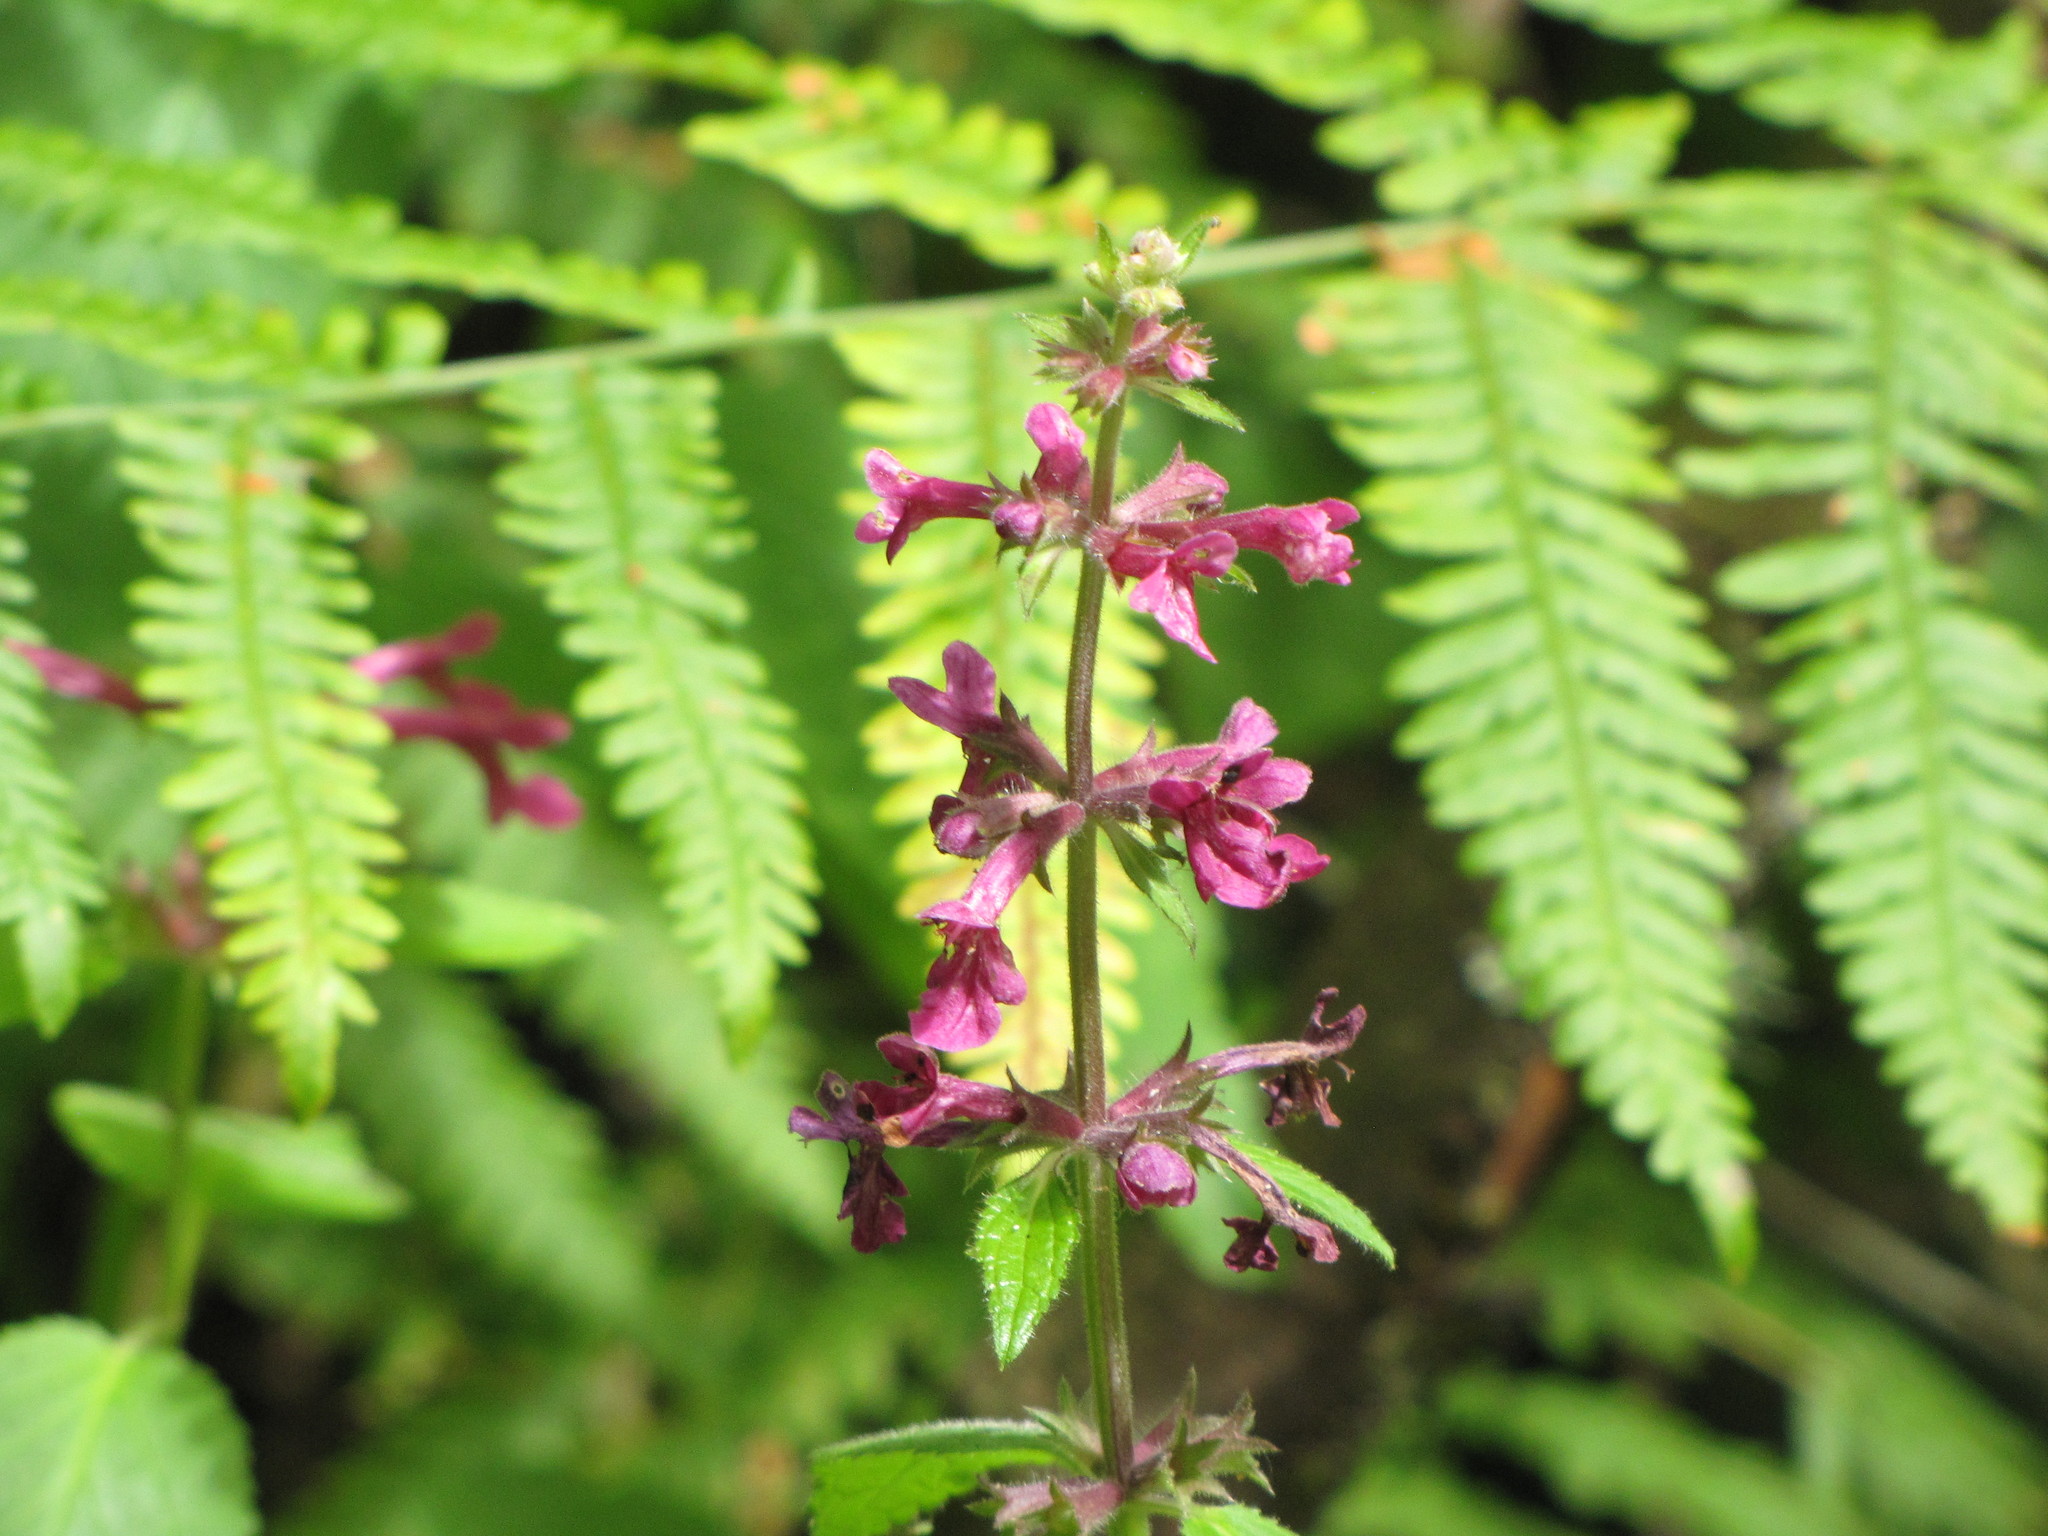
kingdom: Plantae
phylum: Tracheophyta
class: Magnoliopsida
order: Lamiales
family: Lamiaceae
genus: Stachys
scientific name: Stachys chamissonis
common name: Coastal hedge-nettle
